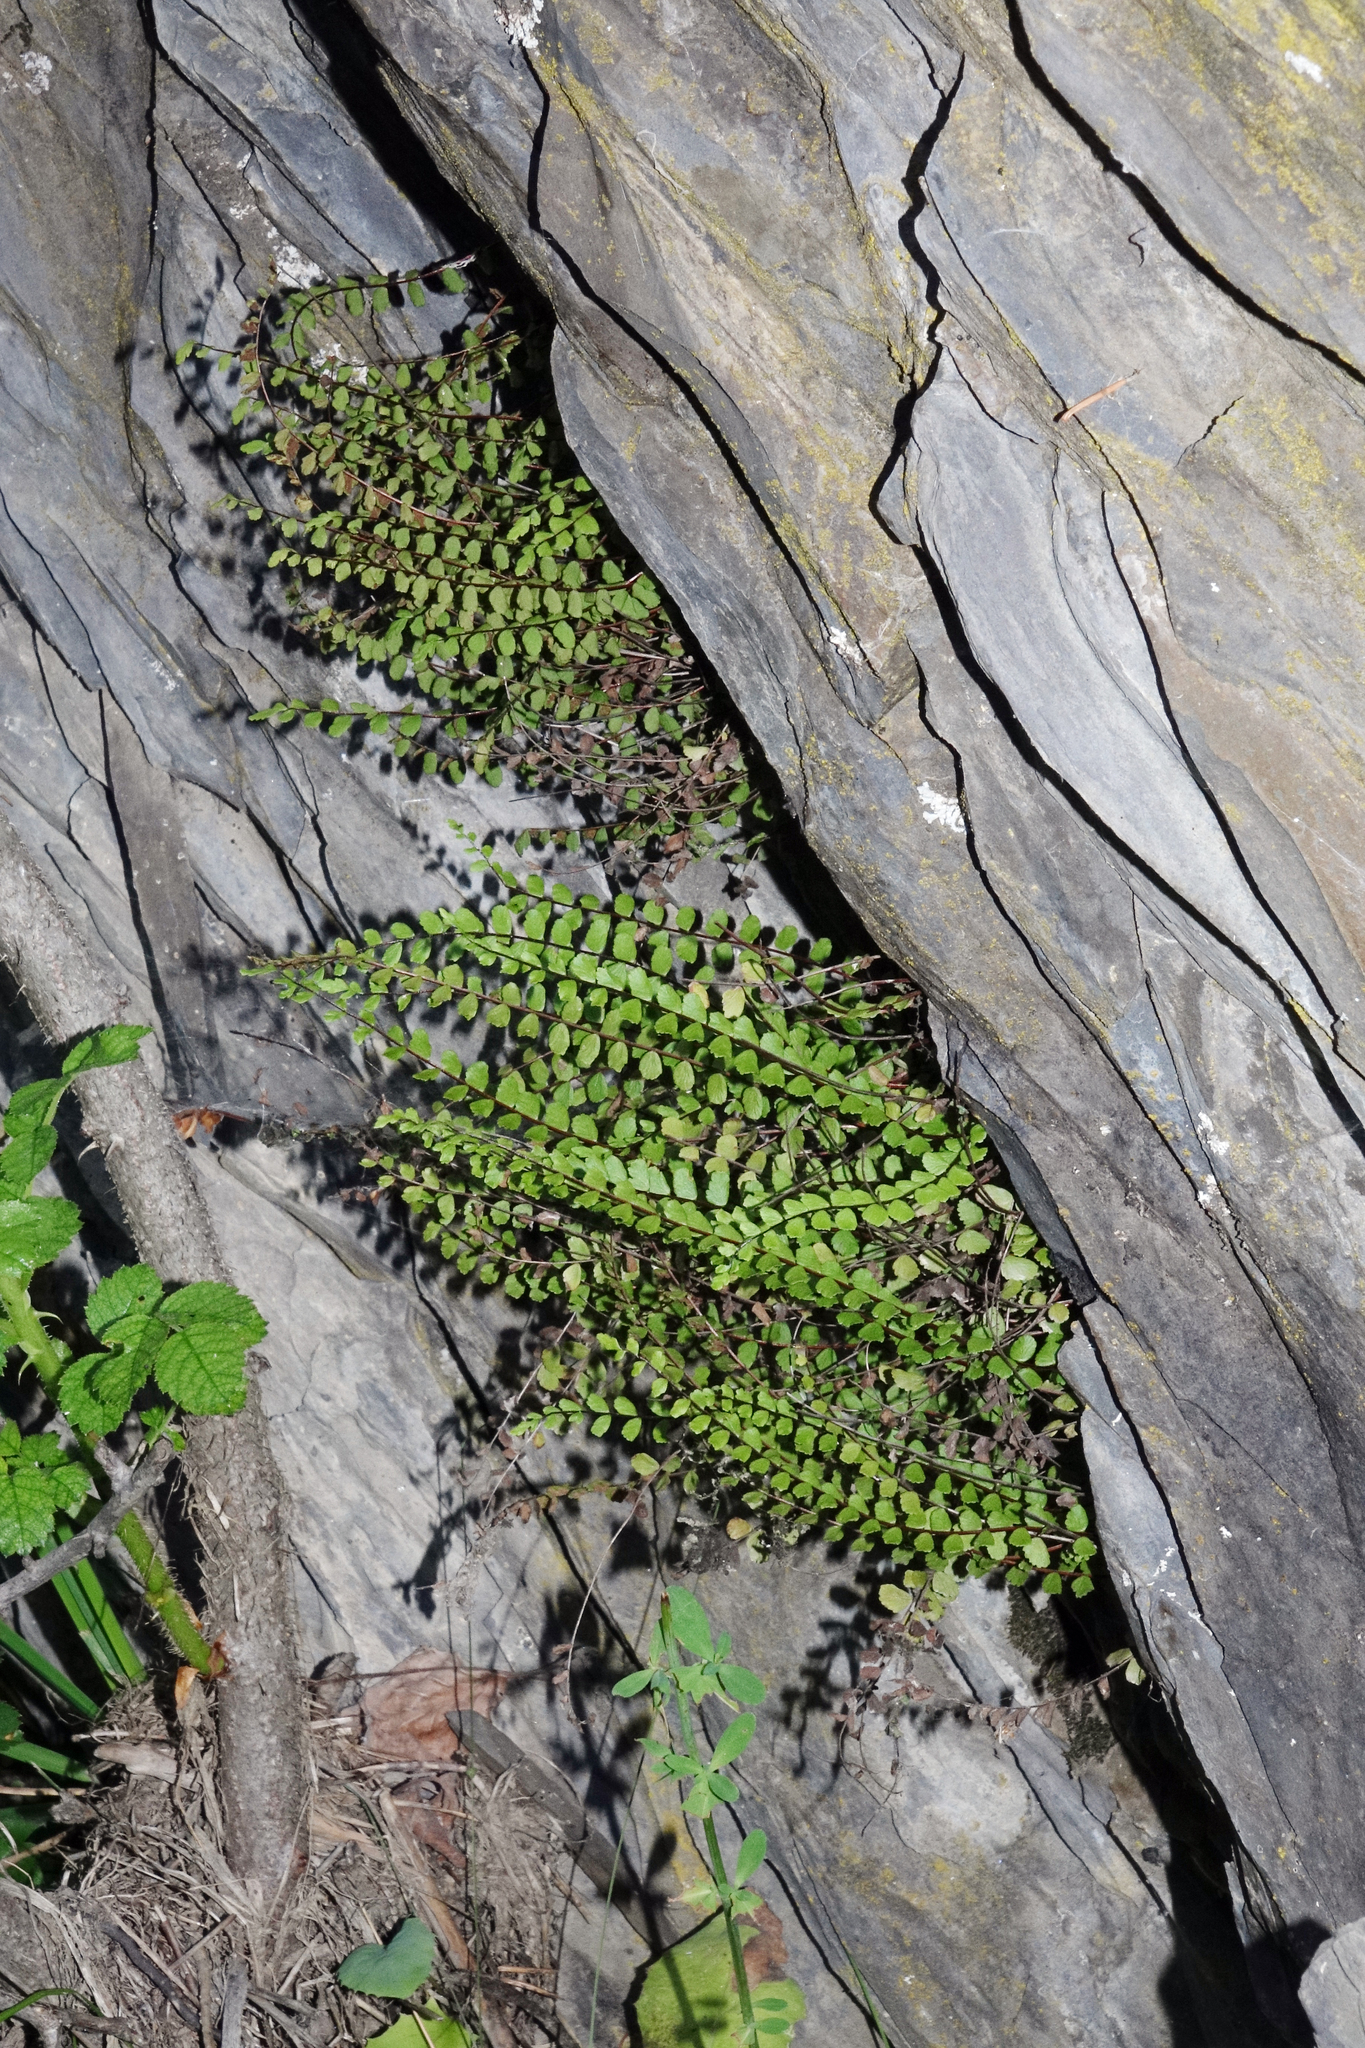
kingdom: Plantae
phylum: Tracheophyta
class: Polypodiopsida
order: Polypodiales
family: Aspleniaceae
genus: Asplenium
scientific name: Asplenium trichomanes
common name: Maidenhair spleenwort
